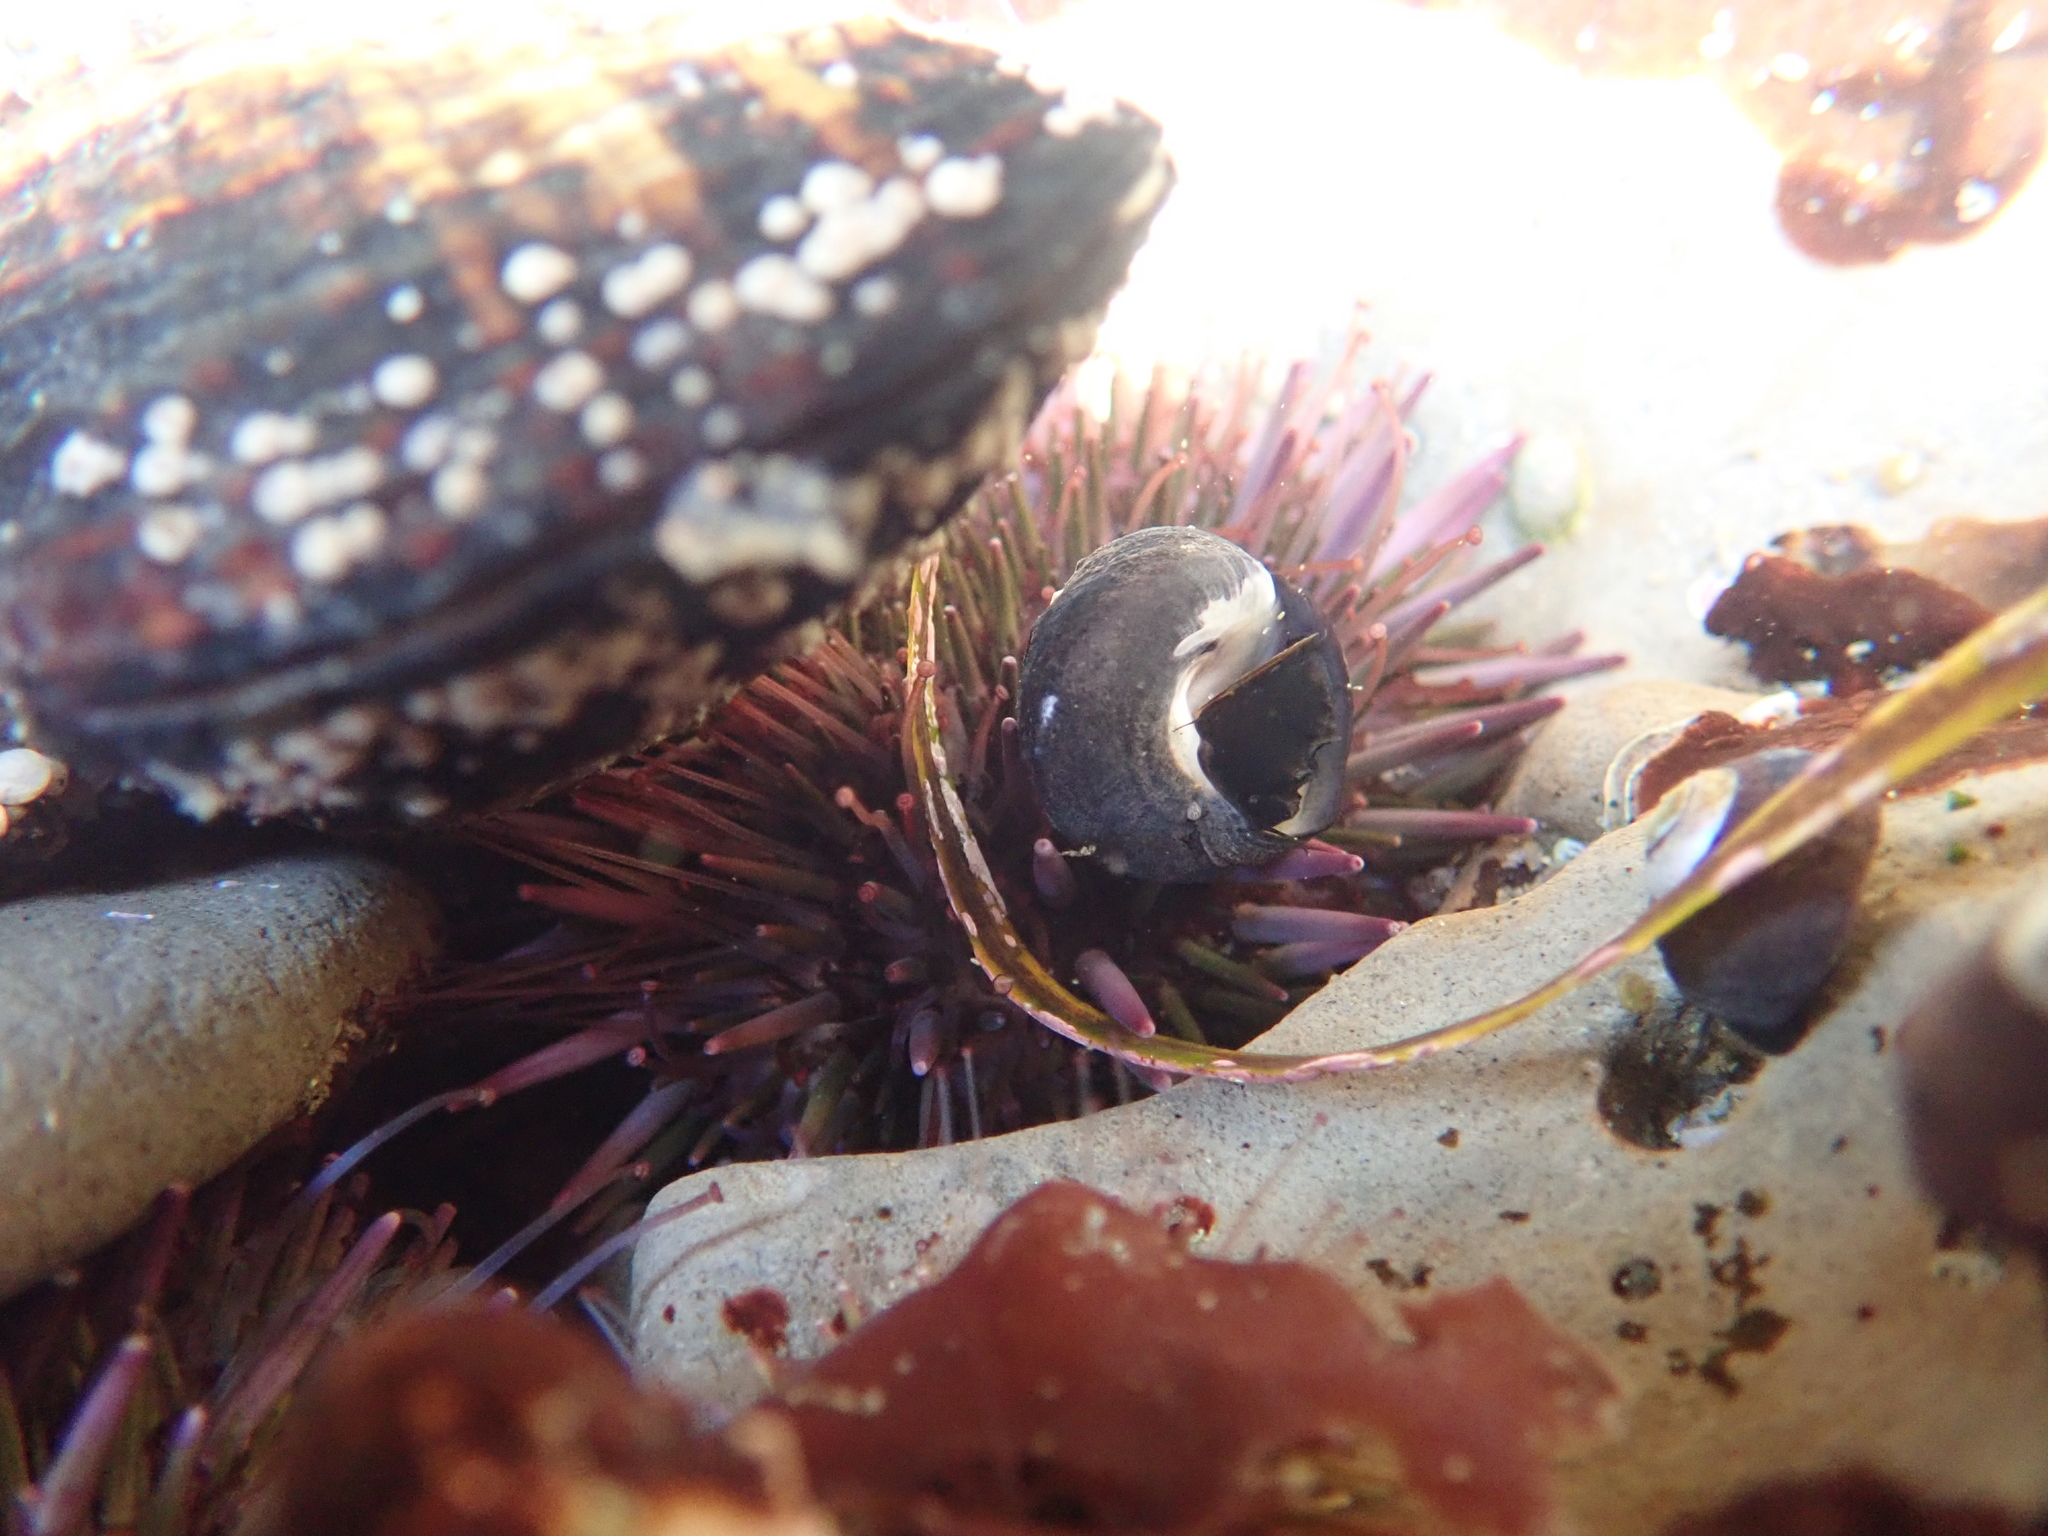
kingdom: Animalia
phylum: Echinodermata
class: Echinoidea
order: Camarodonta
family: Strongylocentrotidae
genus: Strongylocentrotus
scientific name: Strongylocentrotus purpuratus
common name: Purple sea urchin
